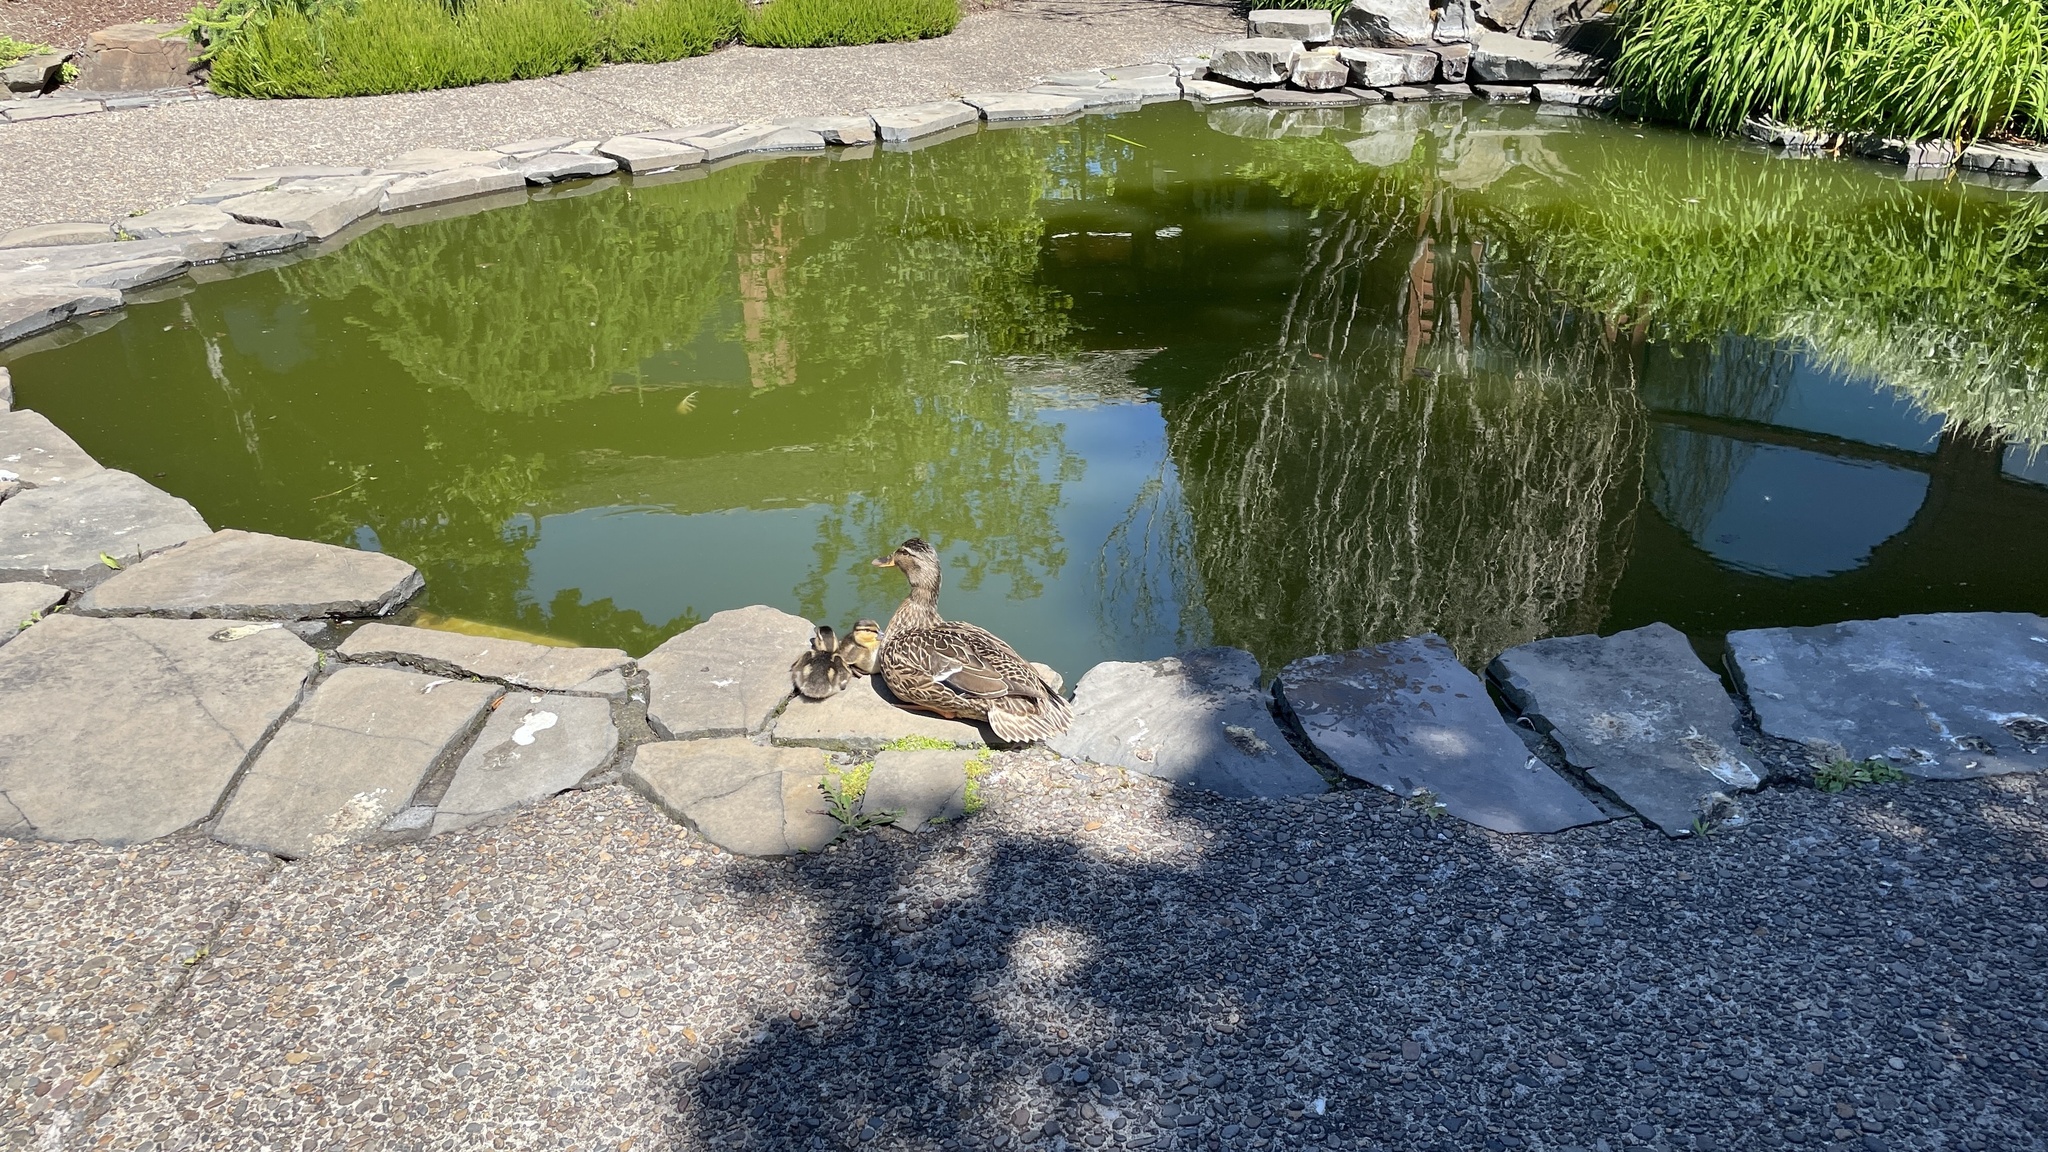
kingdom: Animalia
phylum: Chordata
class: Aves
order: Anseriformes
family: Anatidae
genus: Anas
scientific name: Anas platyrhynchos
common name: Mallard
